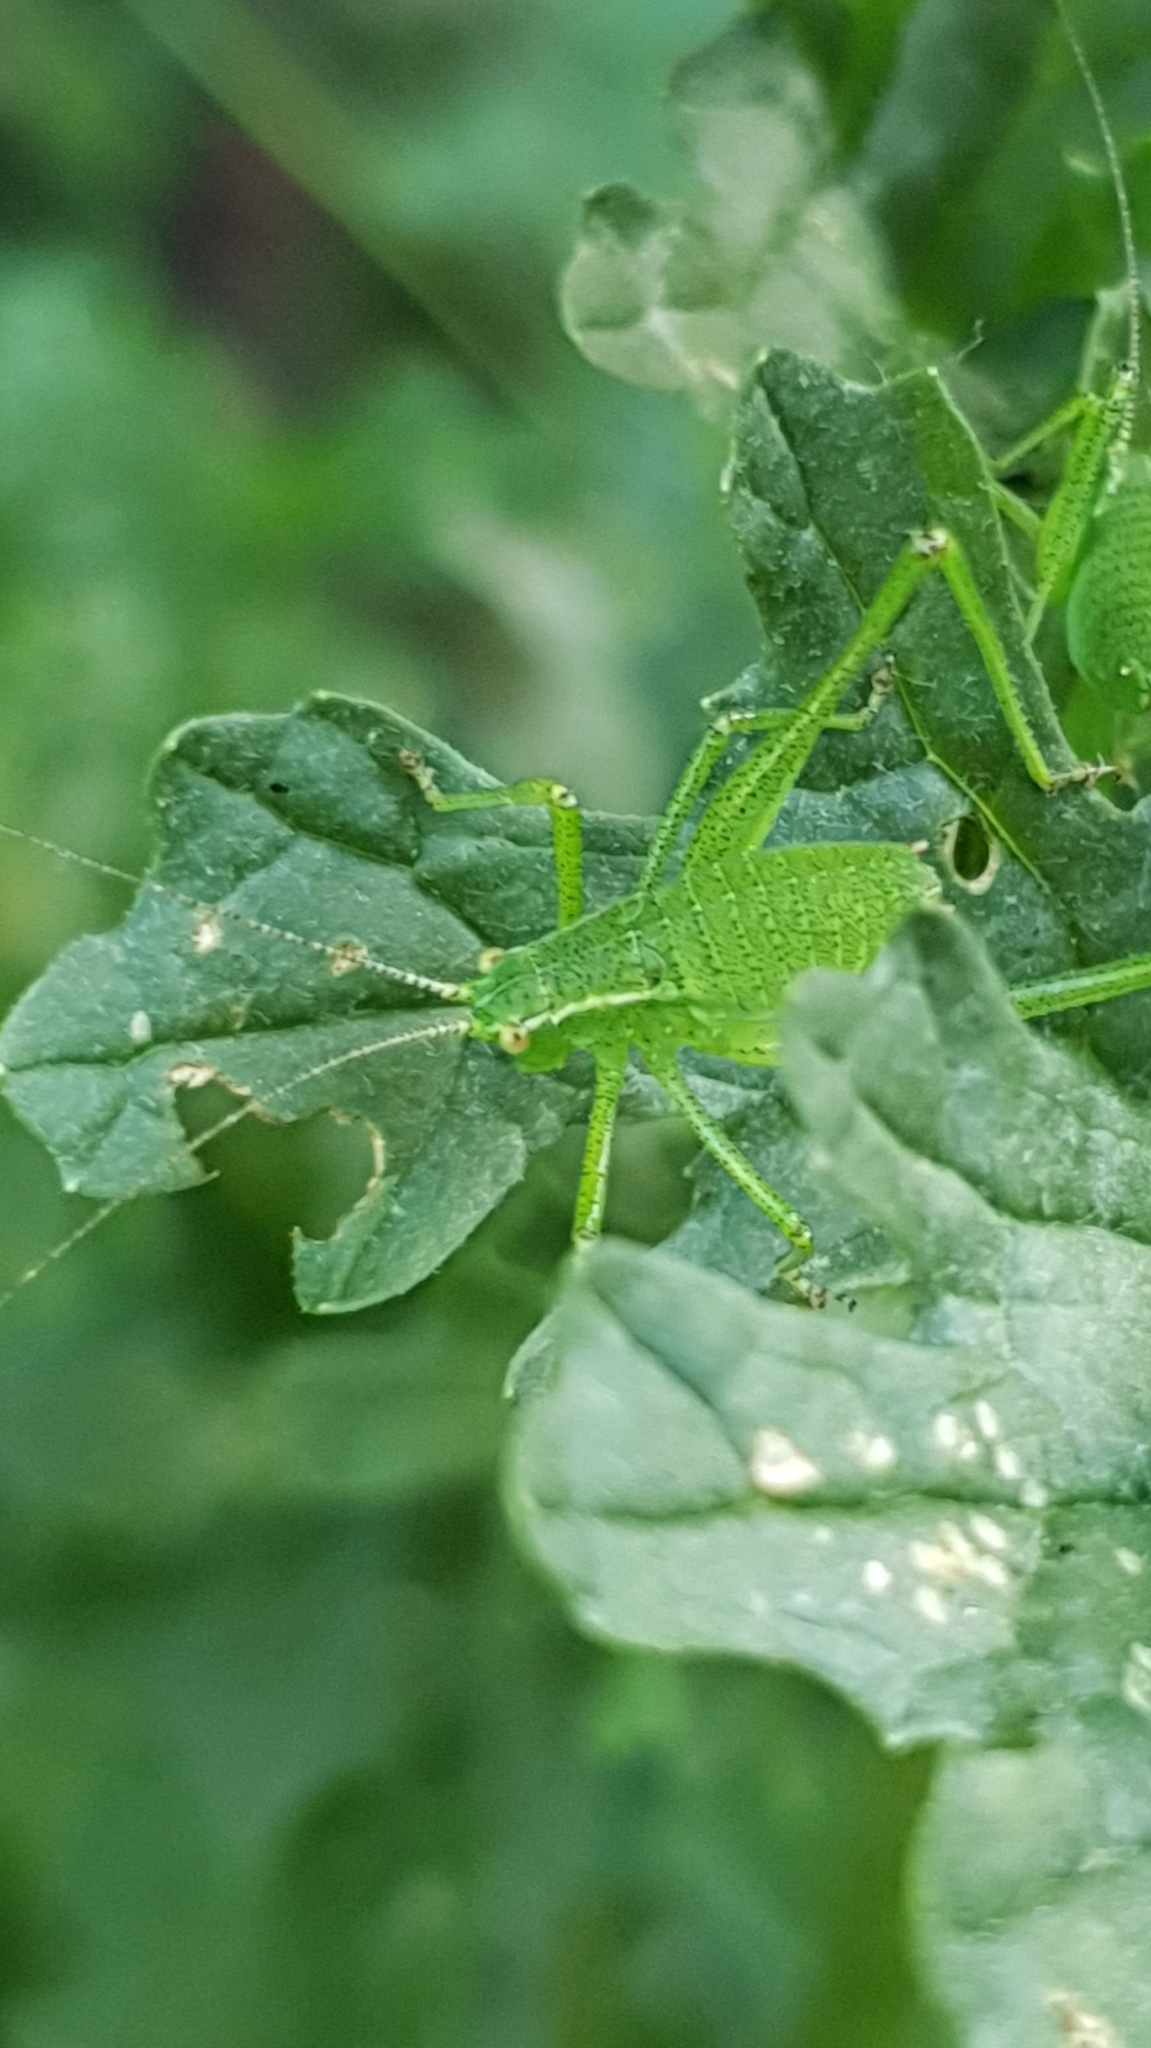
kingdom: Animalia
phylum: Arthropoda
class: Insecta
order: Orthoptera
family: Tettigoniidae
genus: Leptophyes
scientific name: Leptophyes punctatissima
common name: Speckled bush-cricket
